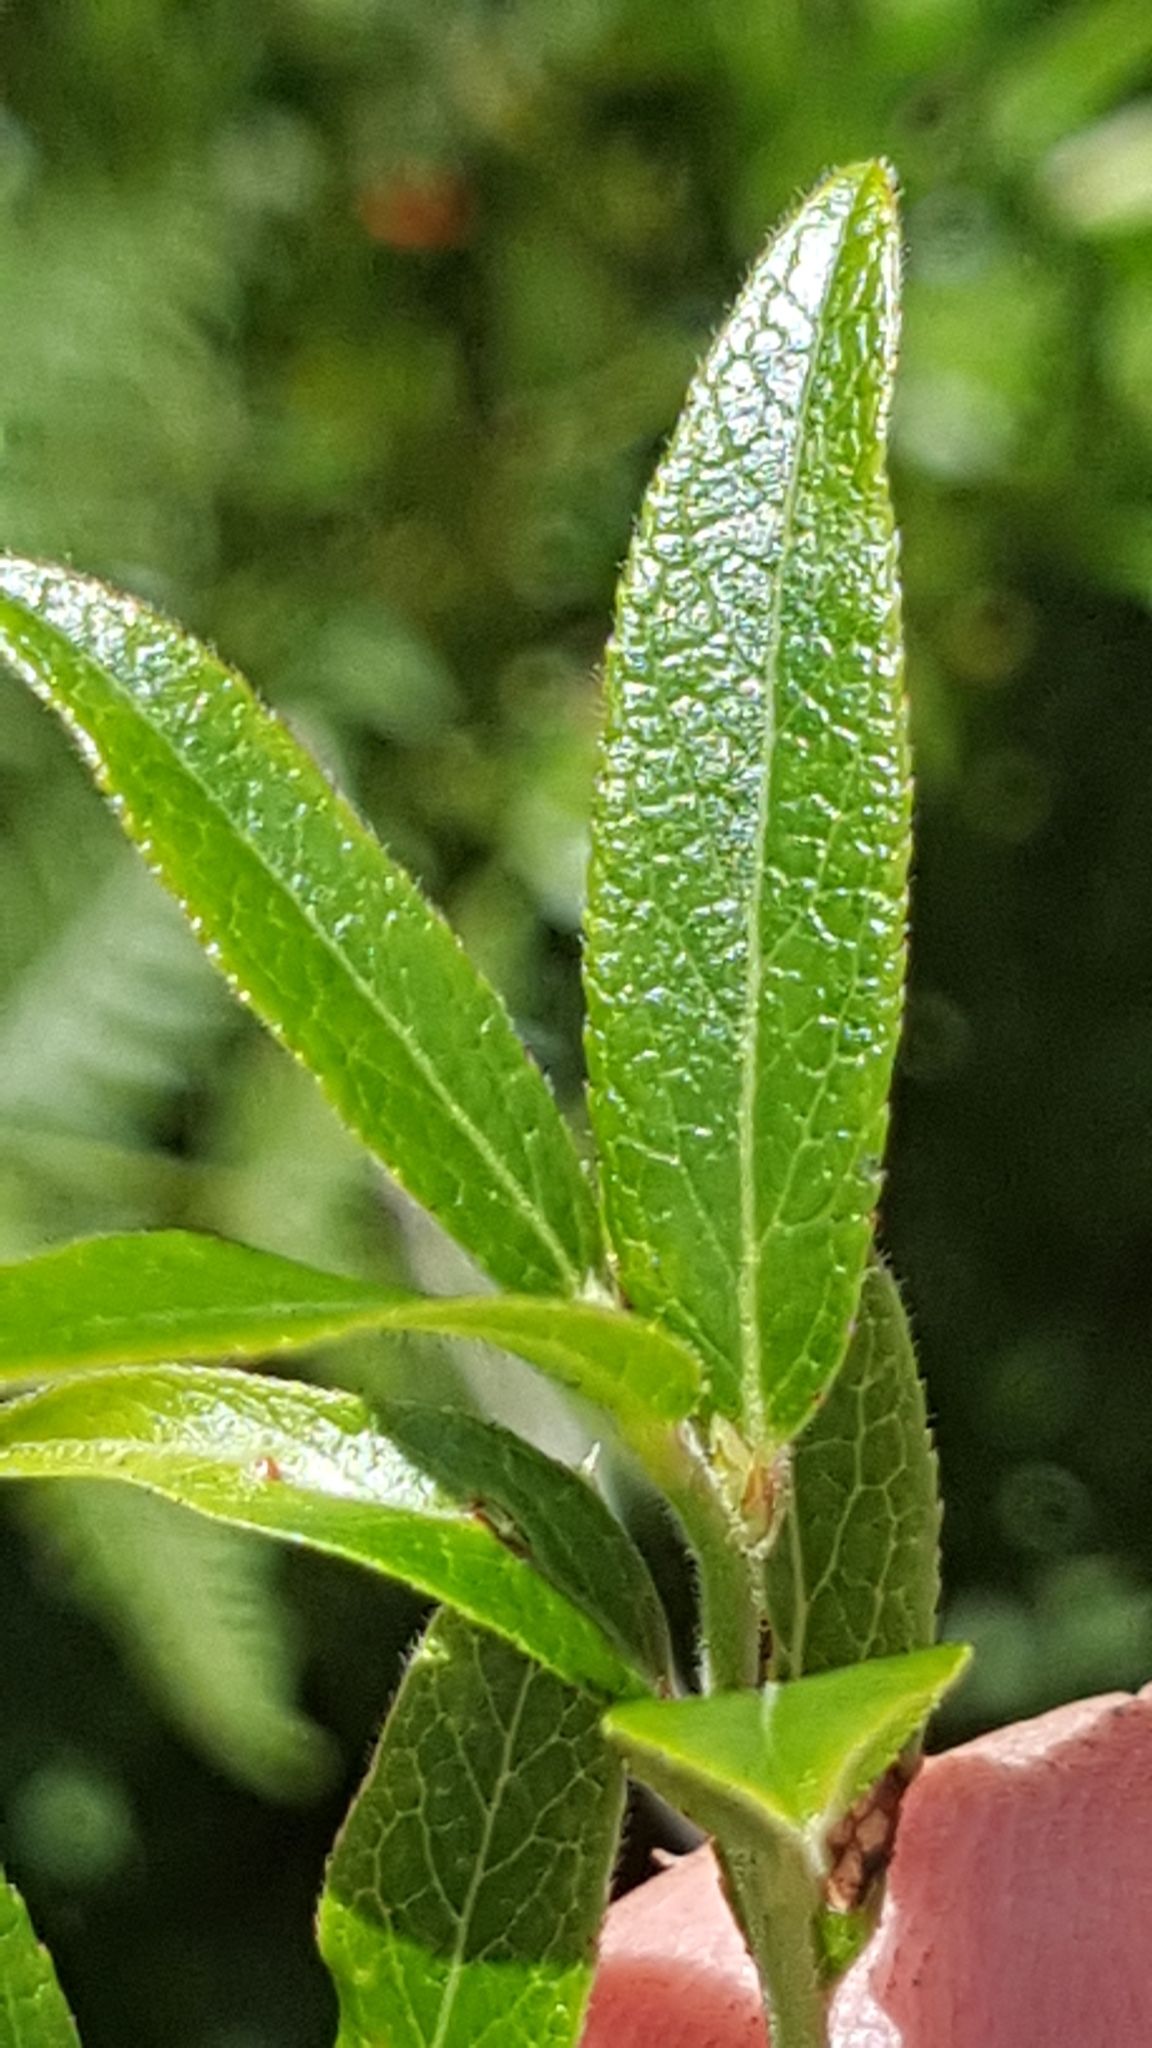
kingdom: Plantae
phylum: Tracheophyta
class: Magnoliopsida
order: Ericales
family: Ericaceae
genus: Vaccinium
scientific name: Vaccinium angustifolium
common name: Early lowbush blueberry
